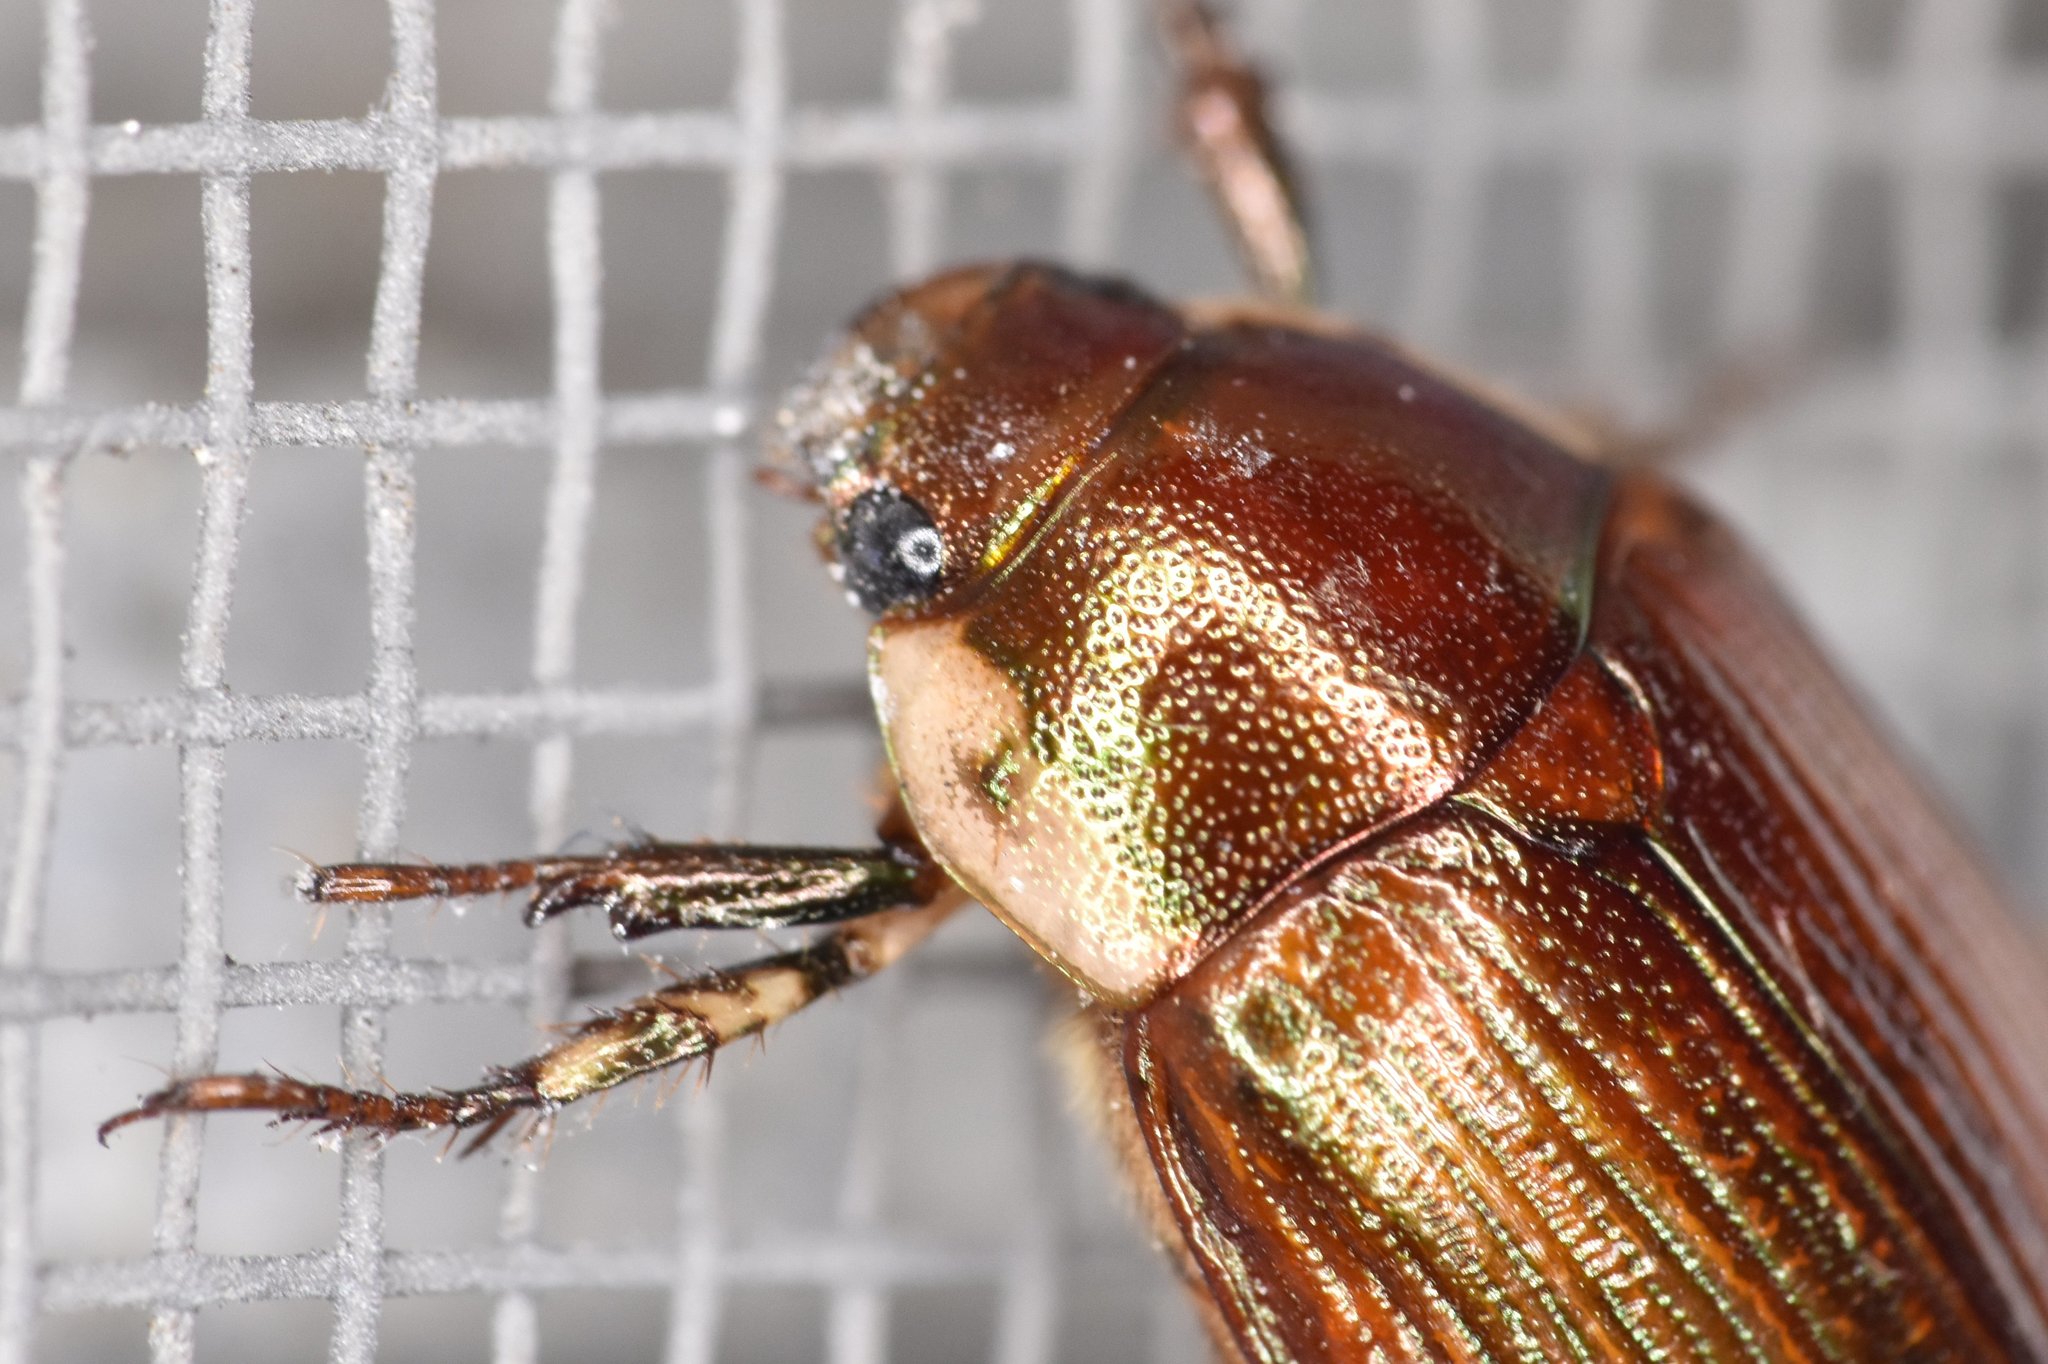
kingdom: Animalia
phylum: Arthropoda
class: Insecta
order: Coleoptera
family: Scarabaeidae
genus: Callistethus
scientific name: Callistethus marginatus
